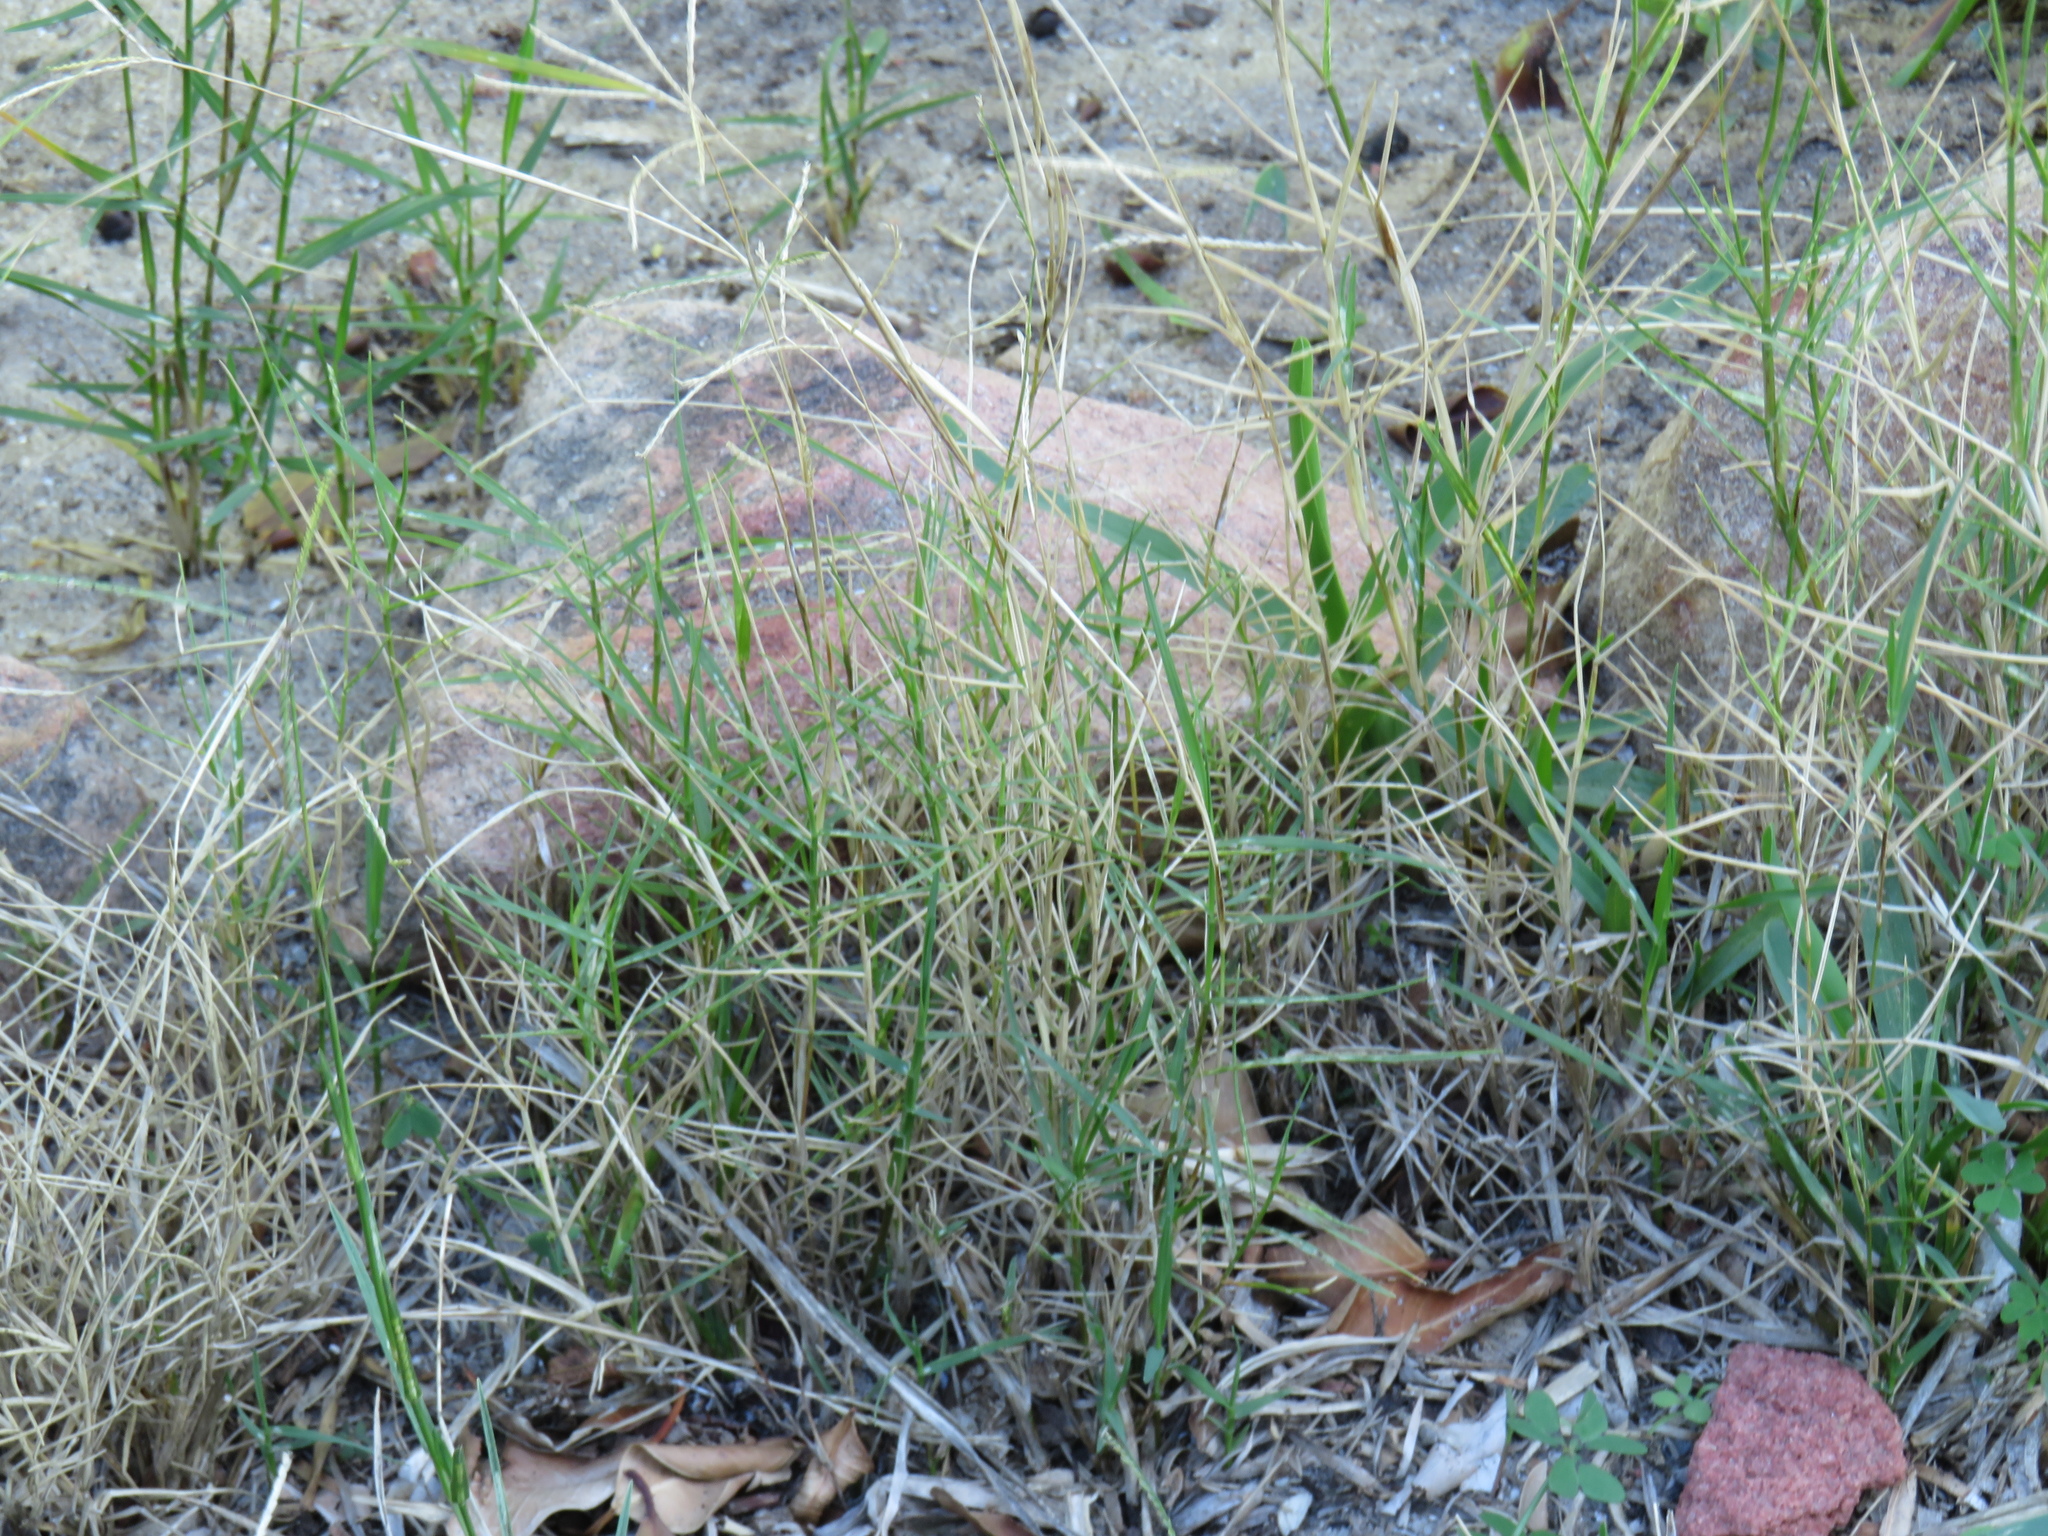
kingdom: Plantae
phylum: Tracheophyta
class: Liliopsida
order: Poales
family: Poaceae
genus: Cynodon
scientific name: Cynodon dactylon
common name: Bermuda grass
